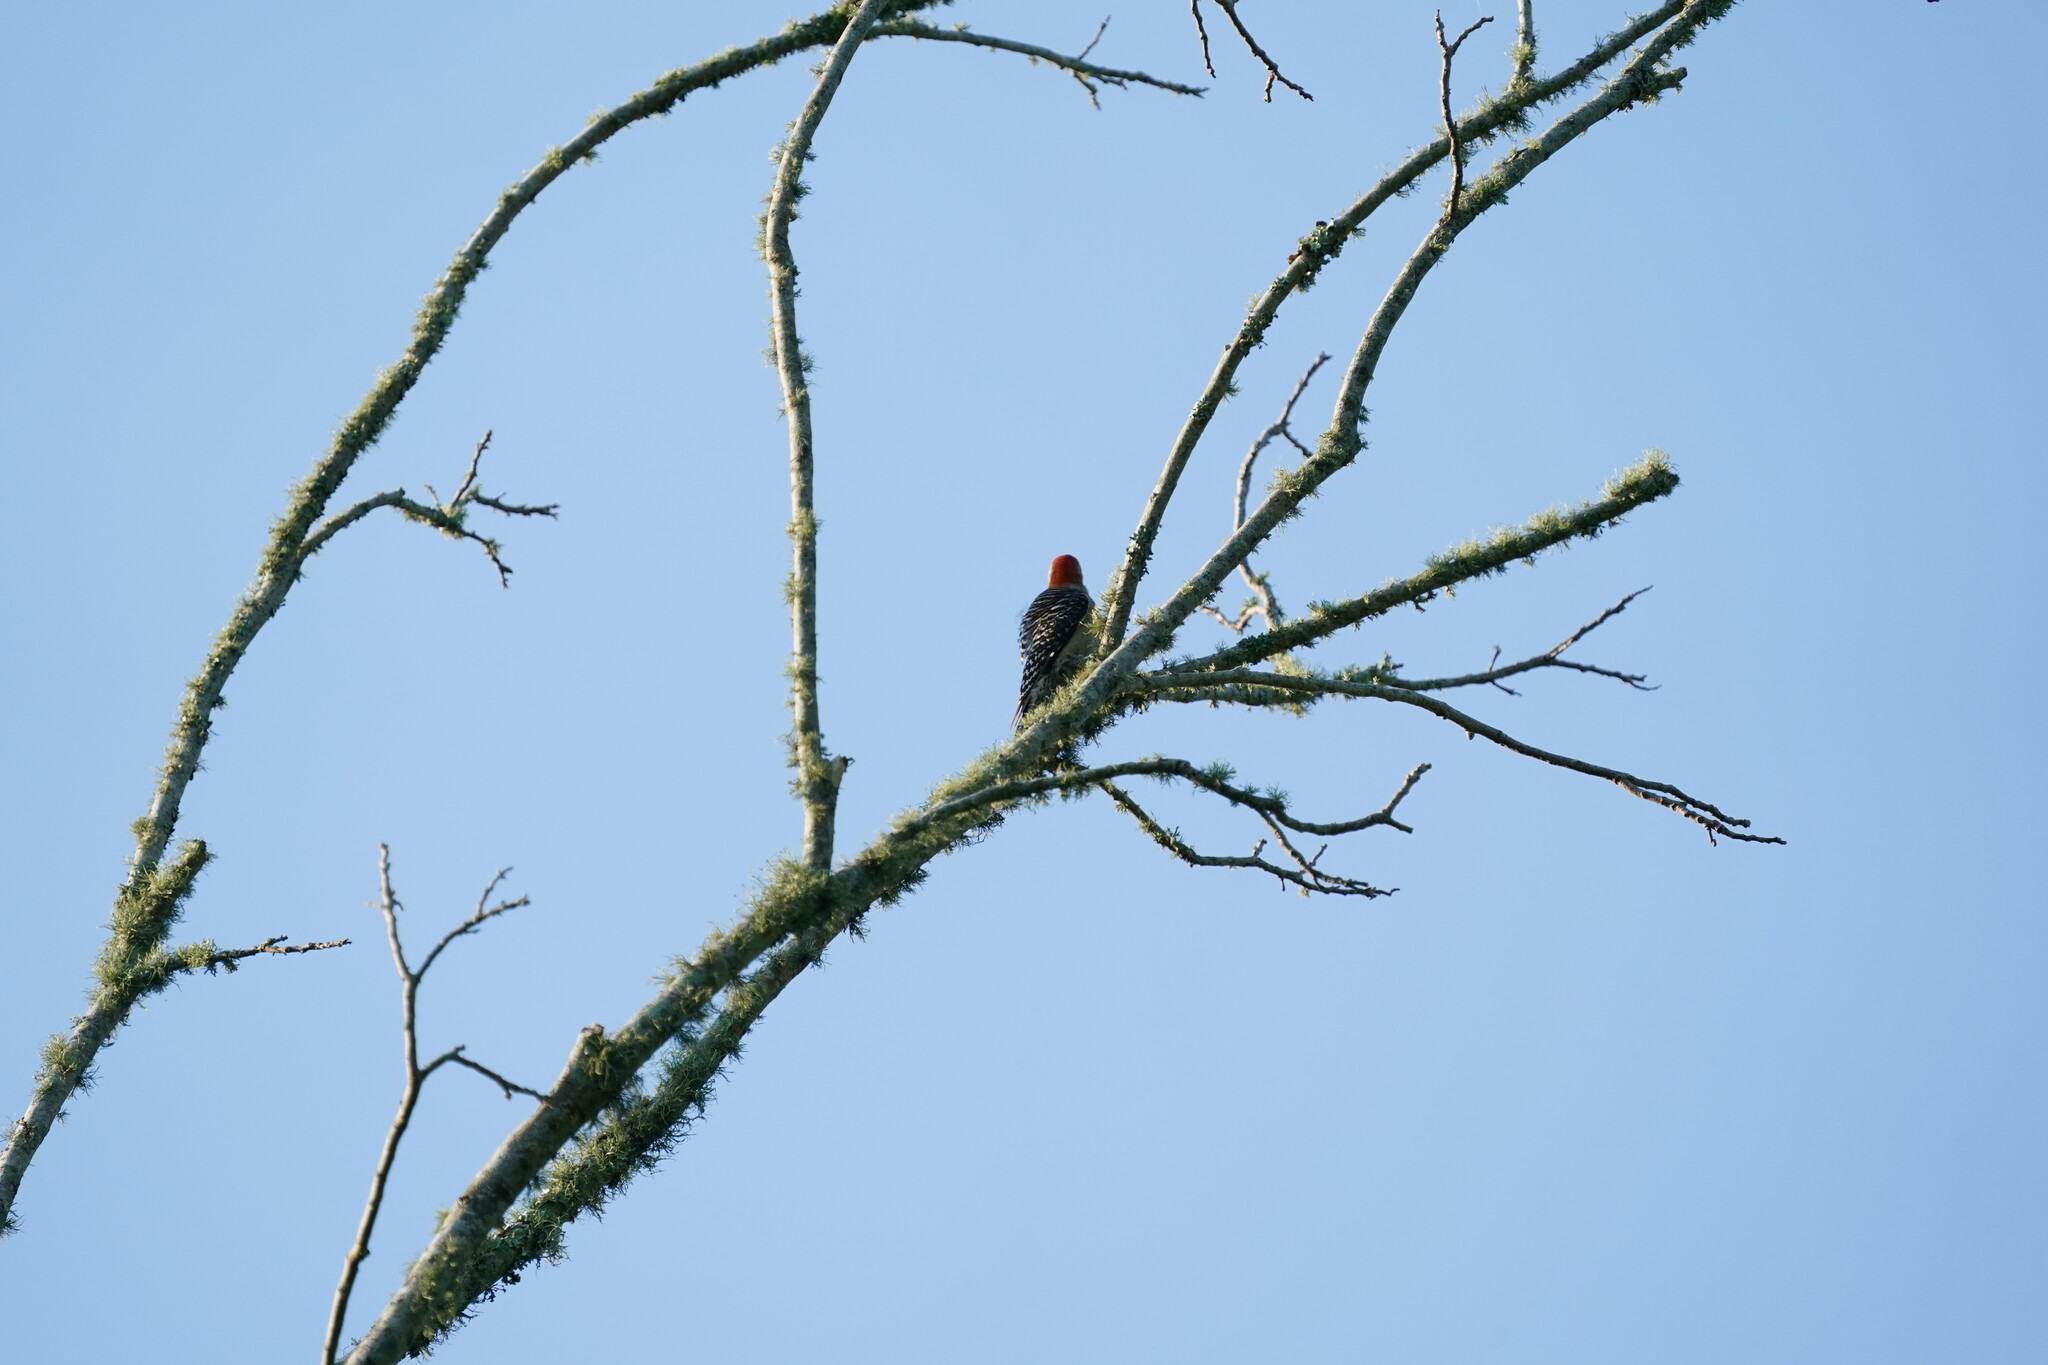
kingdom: Animalia
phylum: Chordata
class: Aves
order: Piciformes
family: Picidae
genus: Melanerpes
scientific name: Melanerpes carolinus
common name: Red-bellied woodpecker
